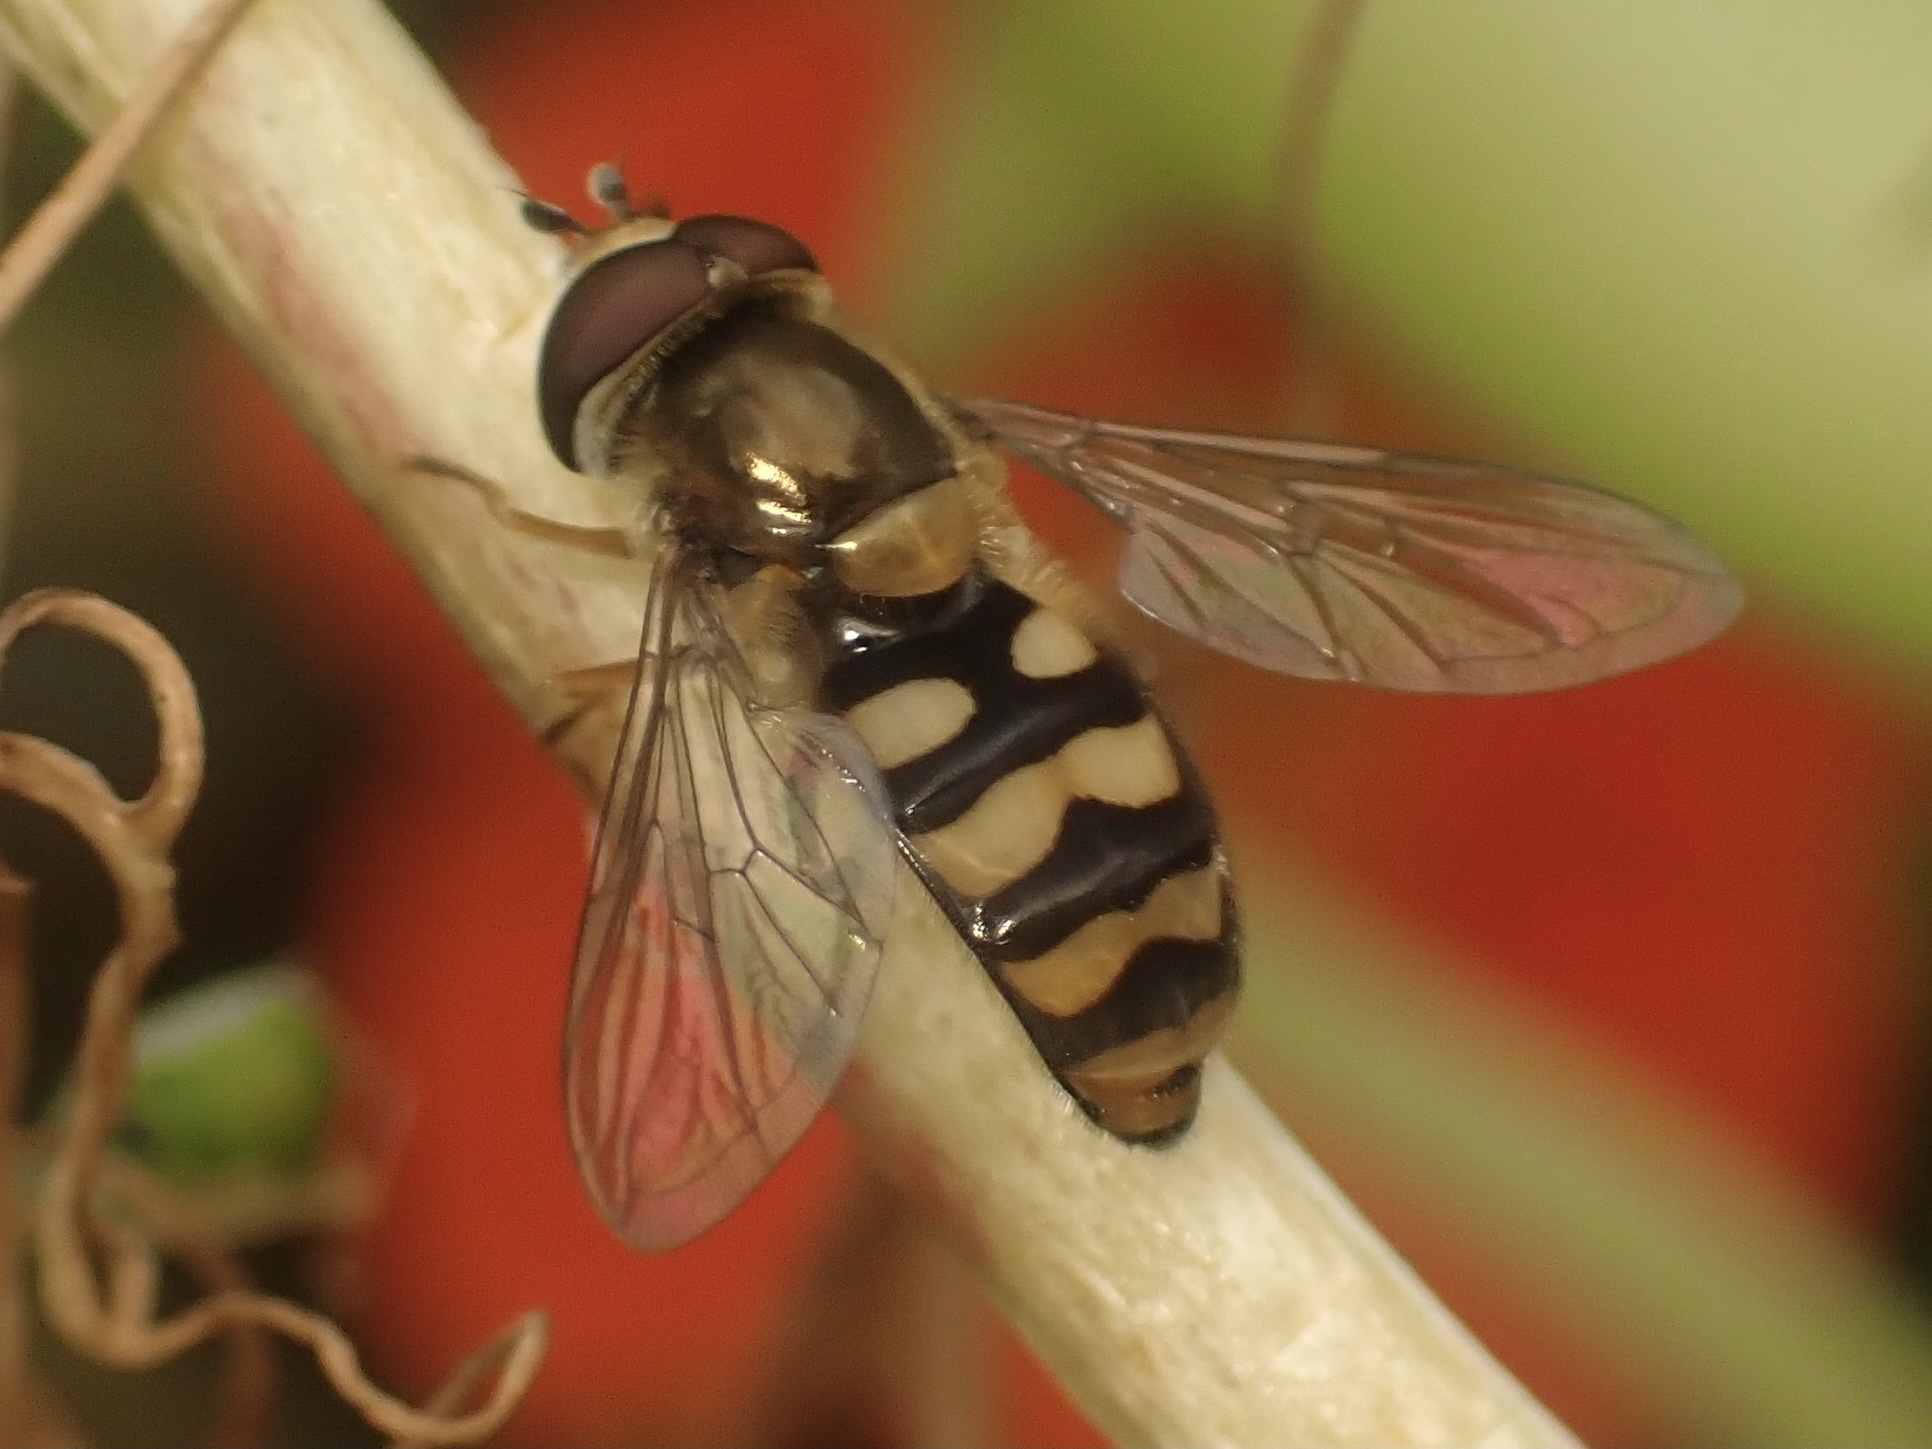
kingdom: Animalia
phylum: Arthropoda
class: Insecta
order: Diptera
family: Syrphidae
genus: Eupeodes
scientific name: Eupeodes fumipennis
